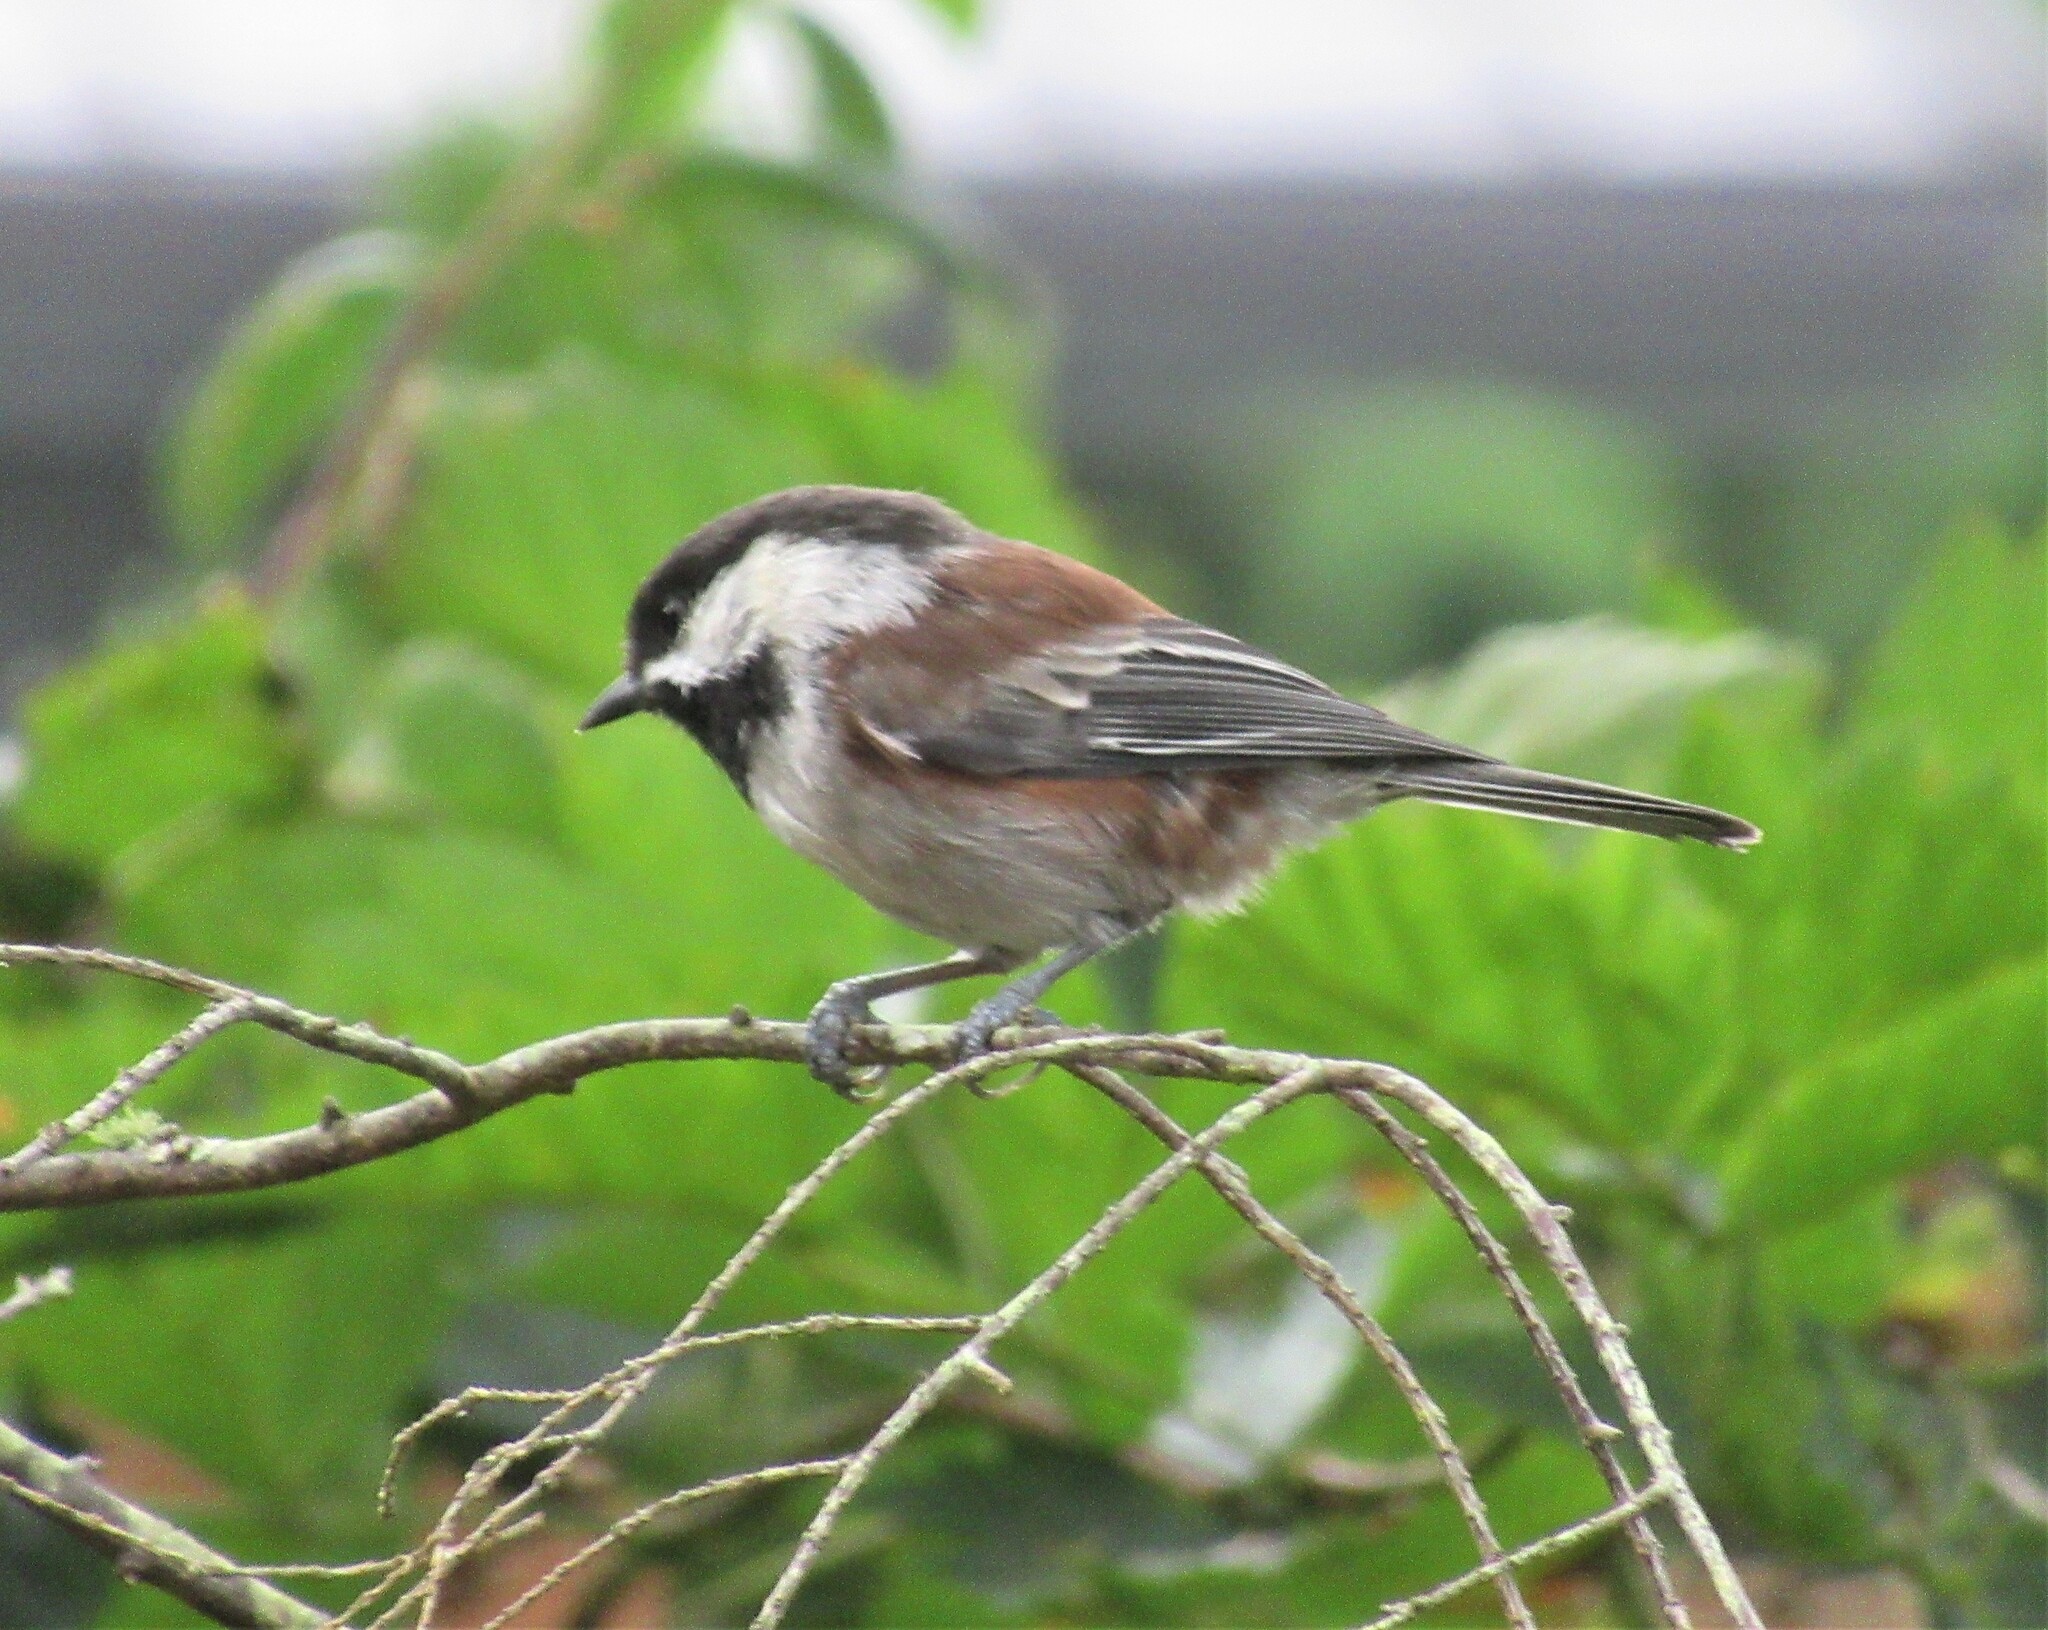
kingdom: Animalia
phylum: Chordata
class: Aves
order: Passeriformes
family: Paridae
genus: Poecile
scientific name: Poecile rufescens
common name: Chestnut-backed chickadee
